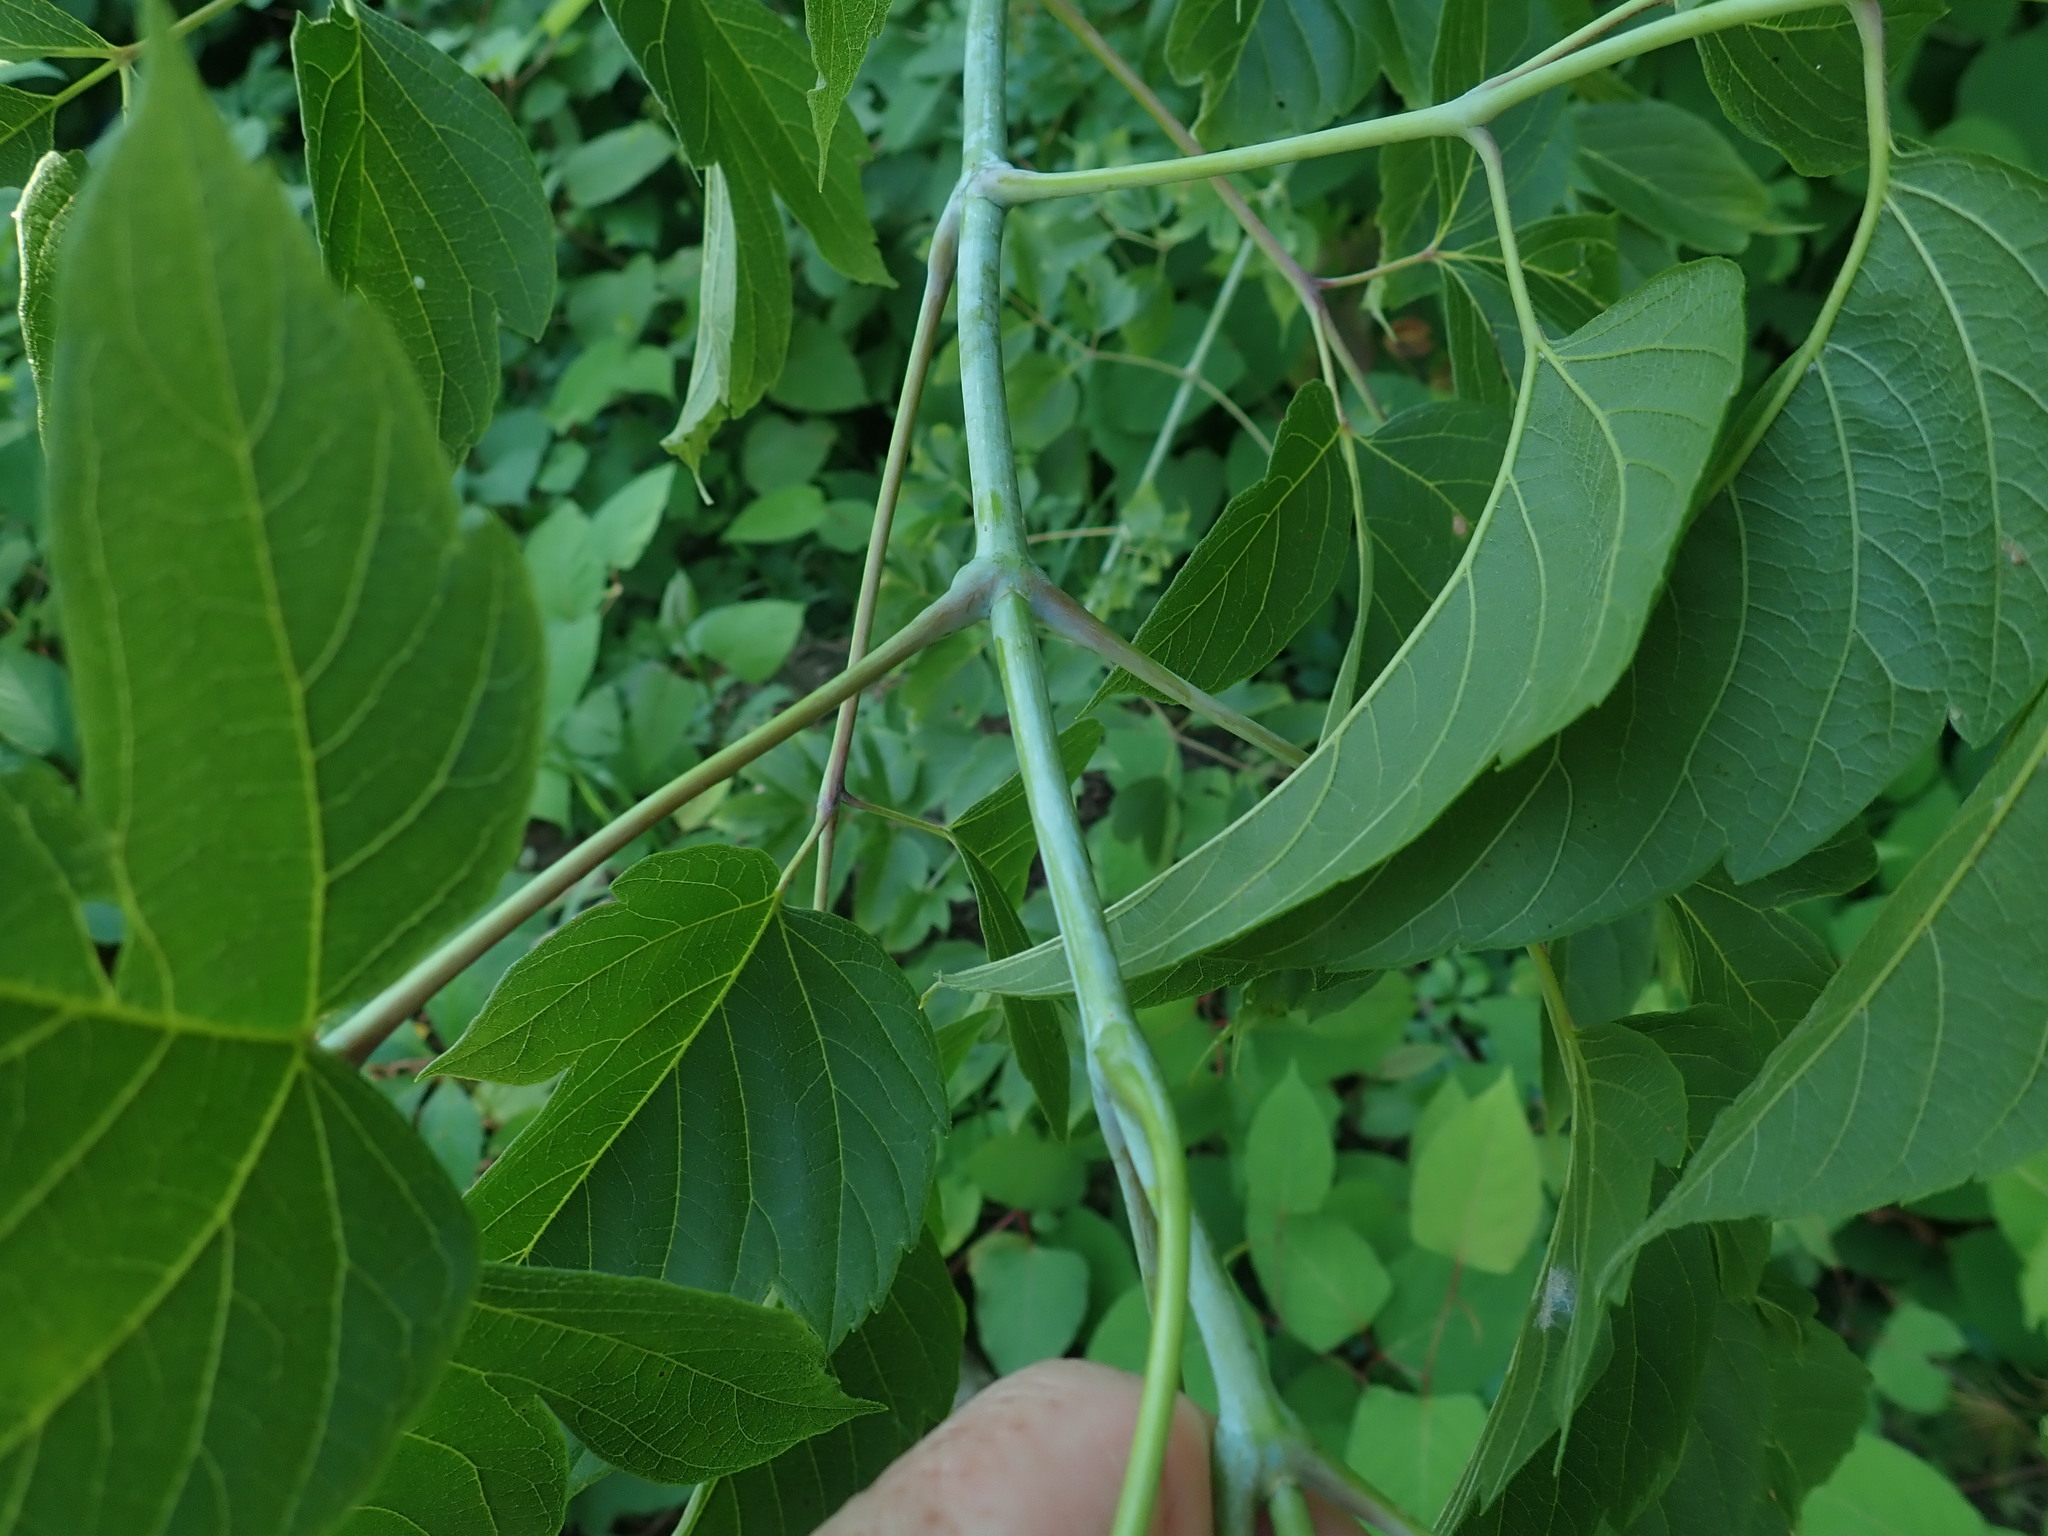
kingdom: Plantae
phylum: Tracheophyta
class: Magnoliopsida
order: Sapindales
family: Sapindaceae
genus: Acer
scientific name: Acer negundo
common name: Ashleaf maple
